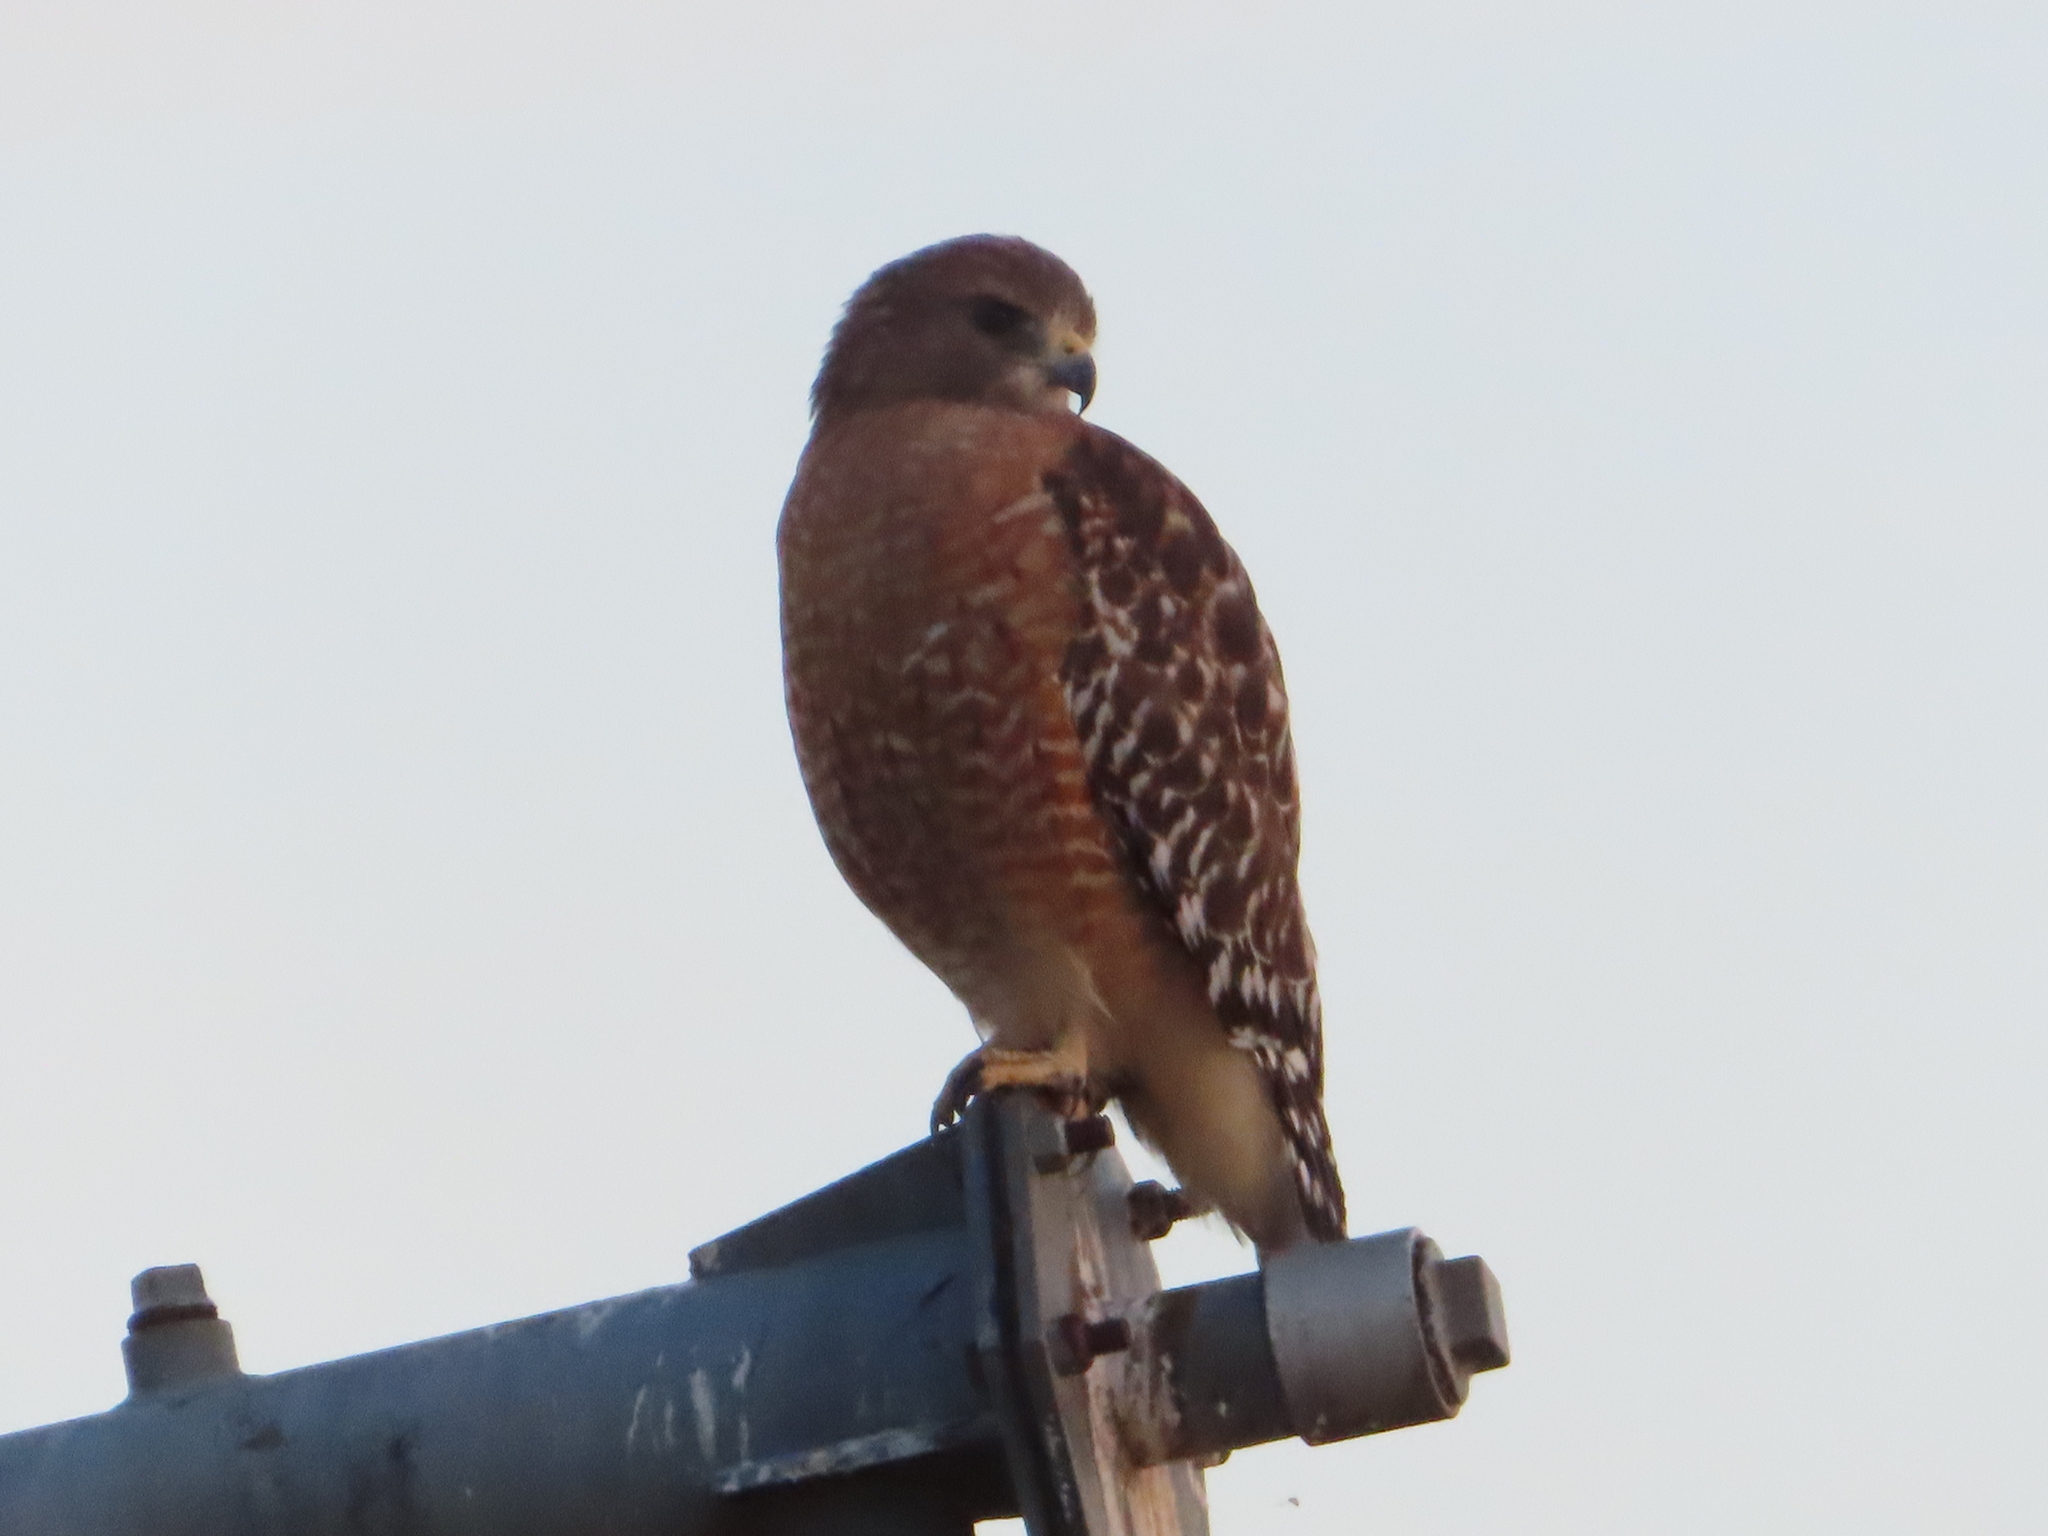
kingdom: Animalia
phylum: Chordata
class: Aves
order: Accipitriformes
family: Accipitridae
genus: Buteo
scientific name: Buteo lineatus
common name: Red-shouldered hawk
